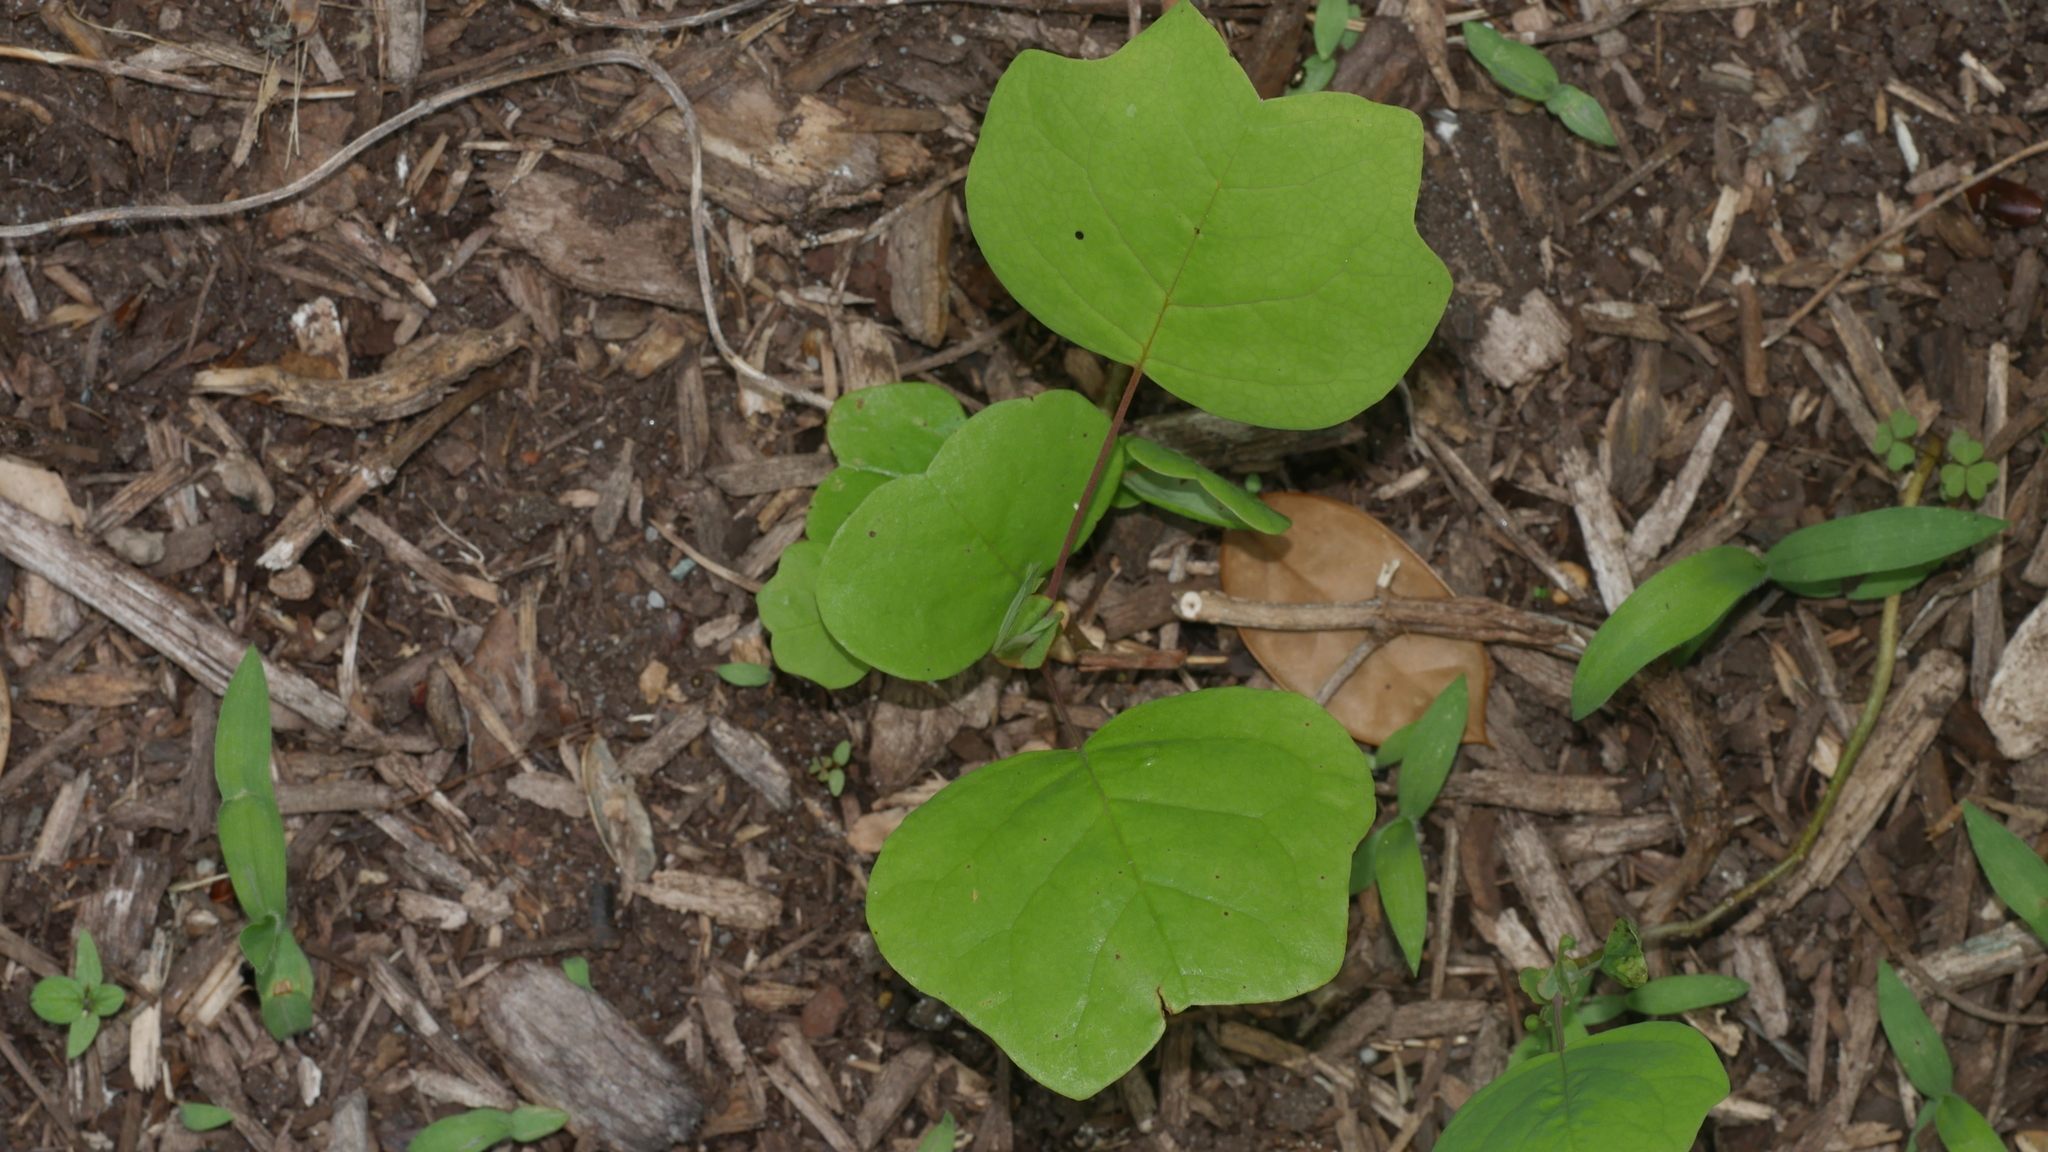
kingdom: Plantae
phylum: Tracheophyta
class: Magnoliopsida
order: Magnoliales
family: Magnoliaceae
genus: Liriodendron
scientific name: Liriodendron tulipifera
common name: Tulip tree
